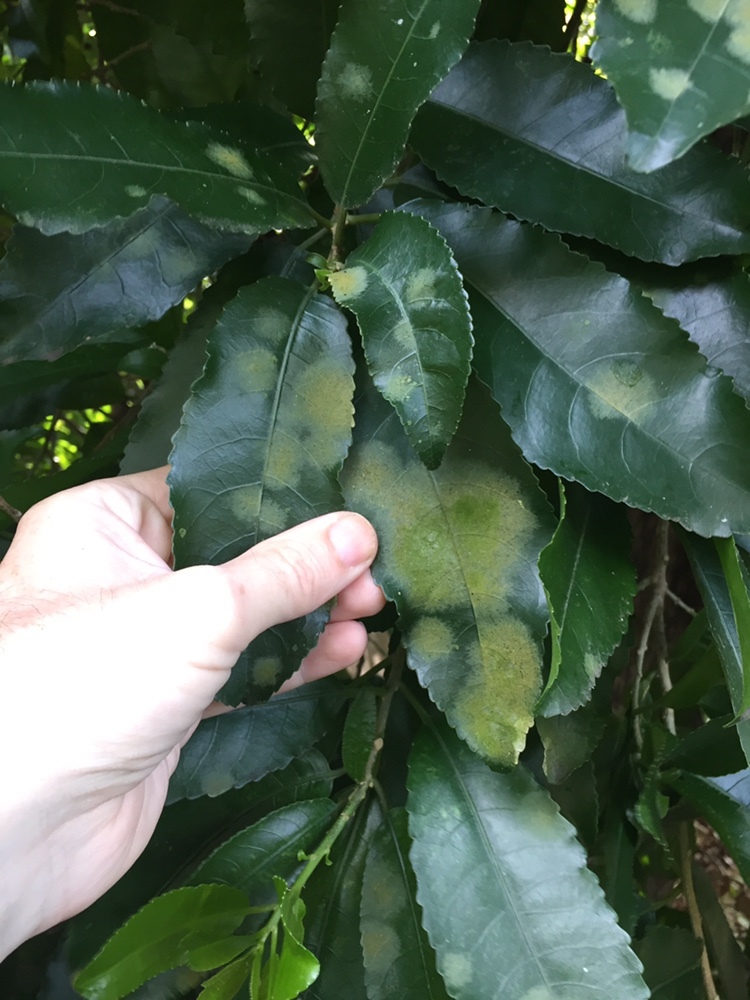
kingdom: Plantae
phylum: Chlorophyta
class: Ulvophyceae
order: Trentepohliales
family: Trentepohliaceae
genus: Cephaleuros
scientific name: Cephaleuros
